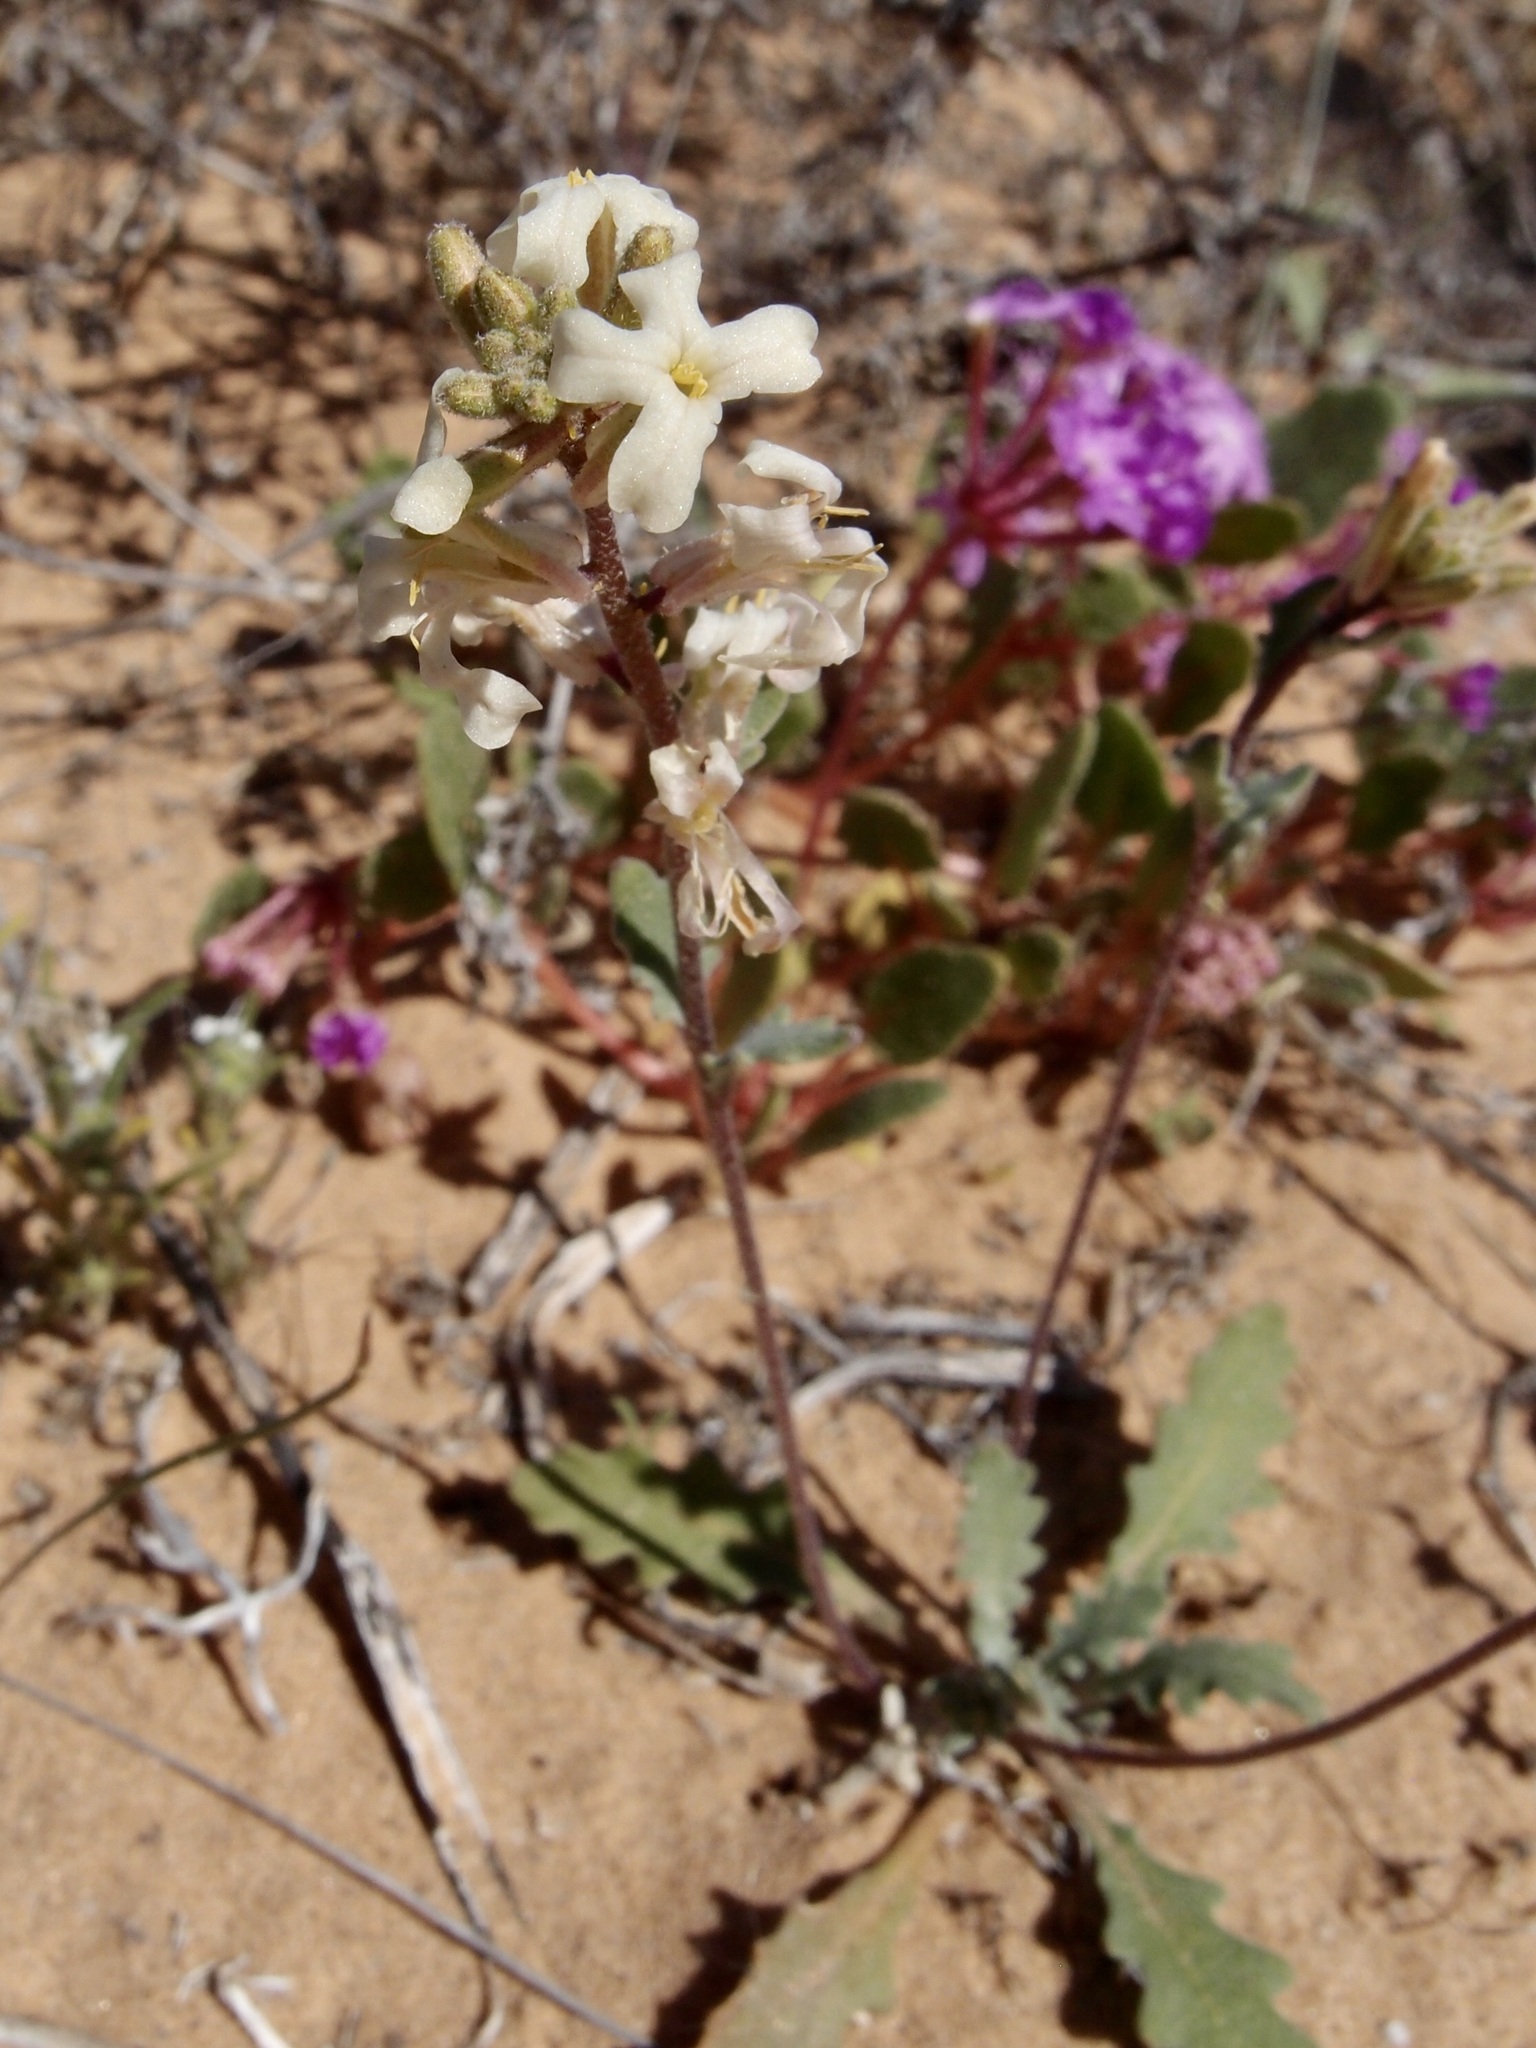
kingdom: Plantae
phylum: Tracheophyta
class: Magnoliopsida
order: Brassicales
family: Brassicaceae
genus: Dithyrea
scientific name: Dithyrea californica
